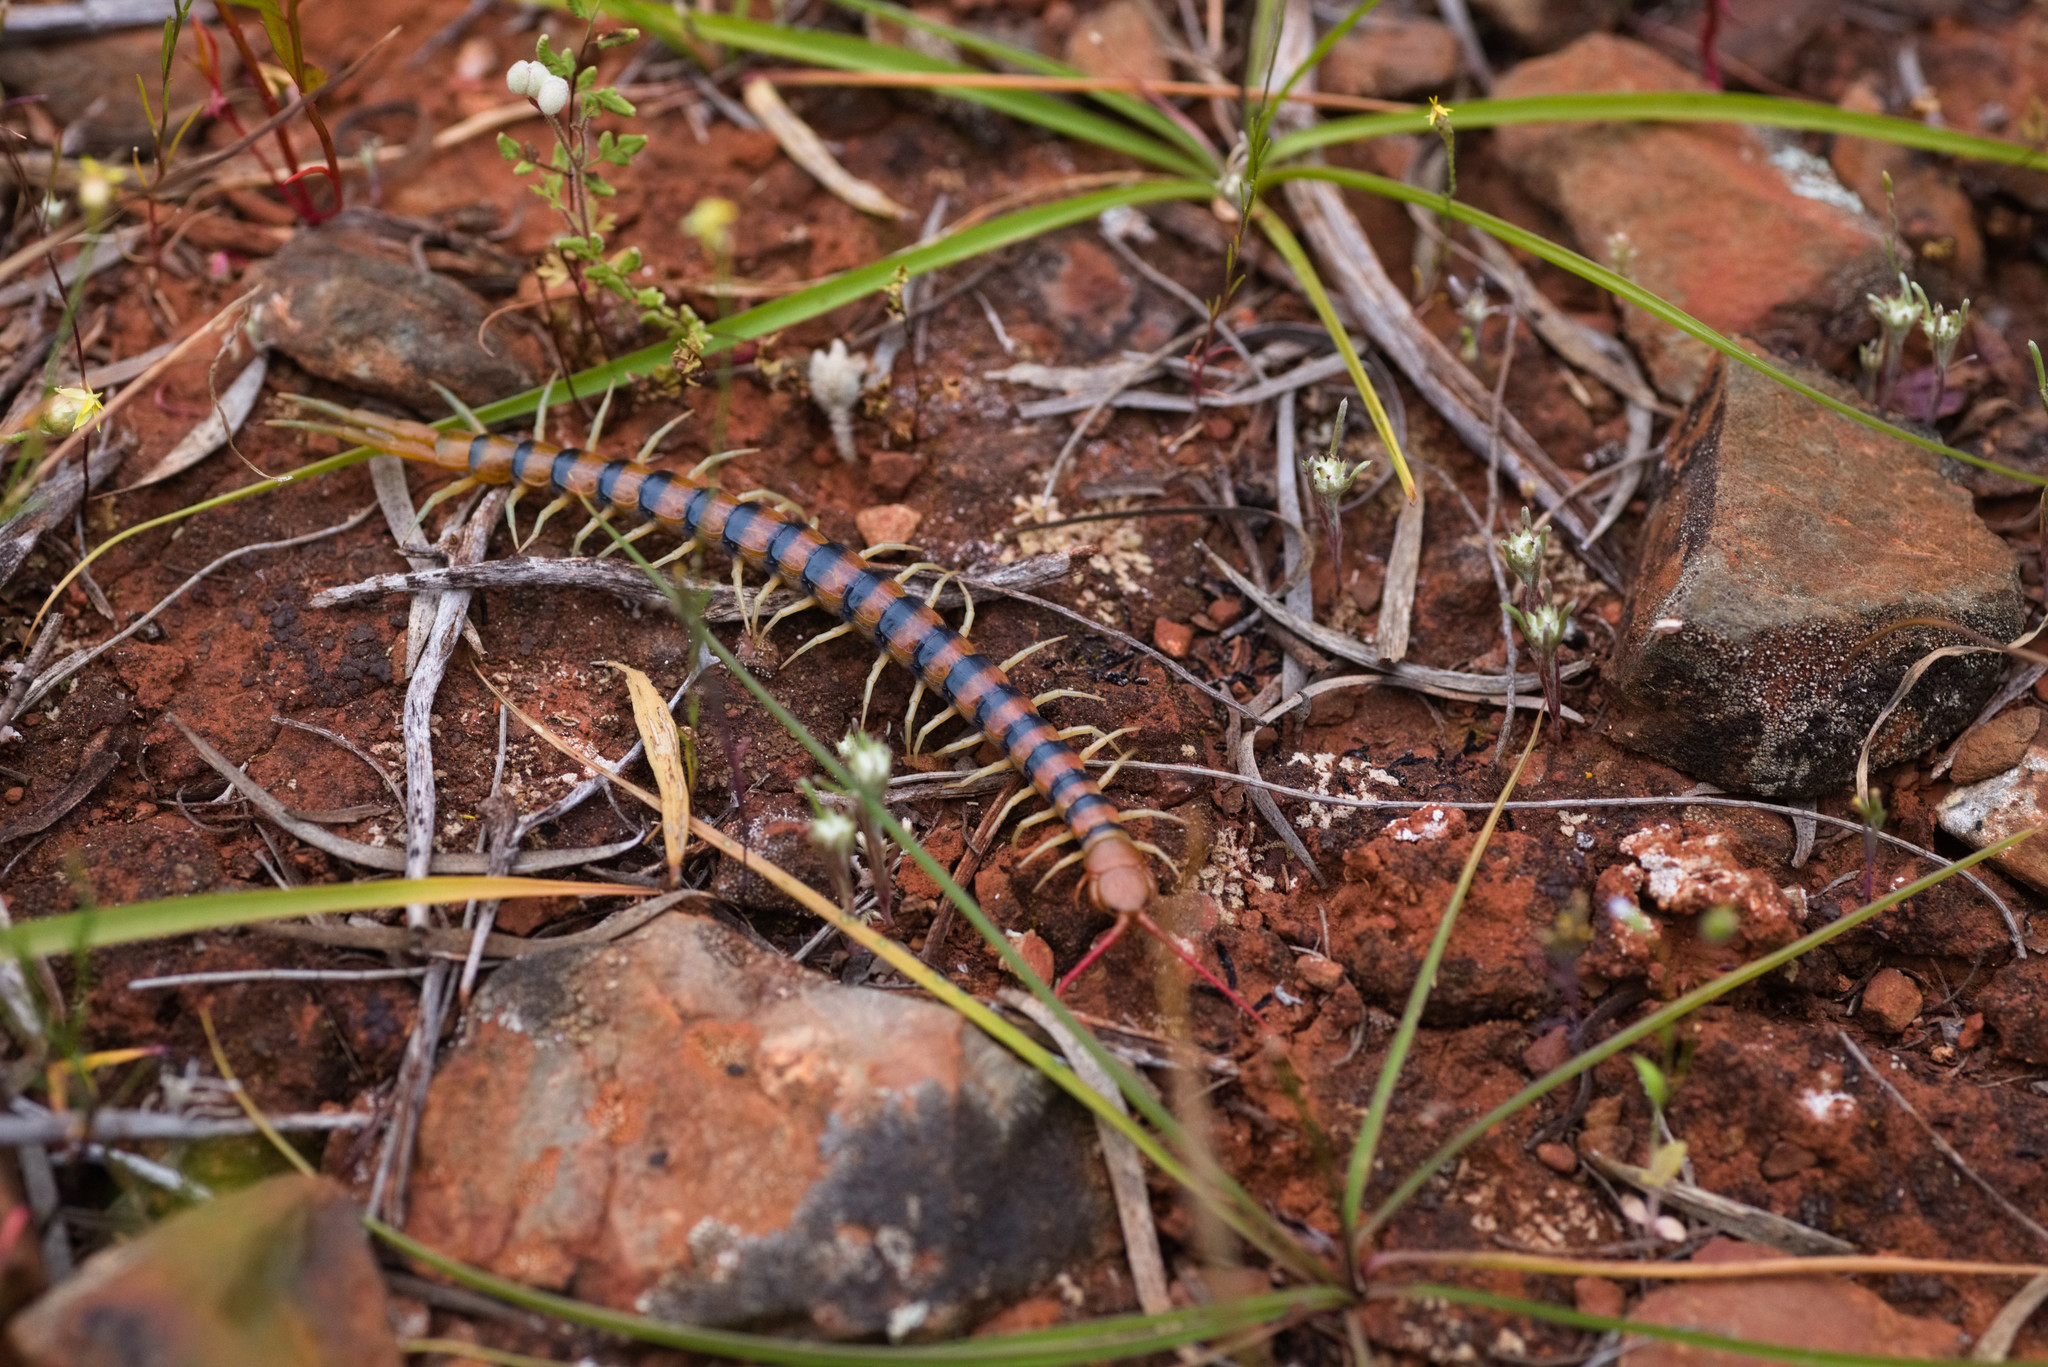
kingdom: Animalia
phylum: Arthropoda
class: Chilopoda
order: Scolopendromorpha
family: Scolopendridae
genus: Scolopendra
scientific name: Scolopendra morsitans
